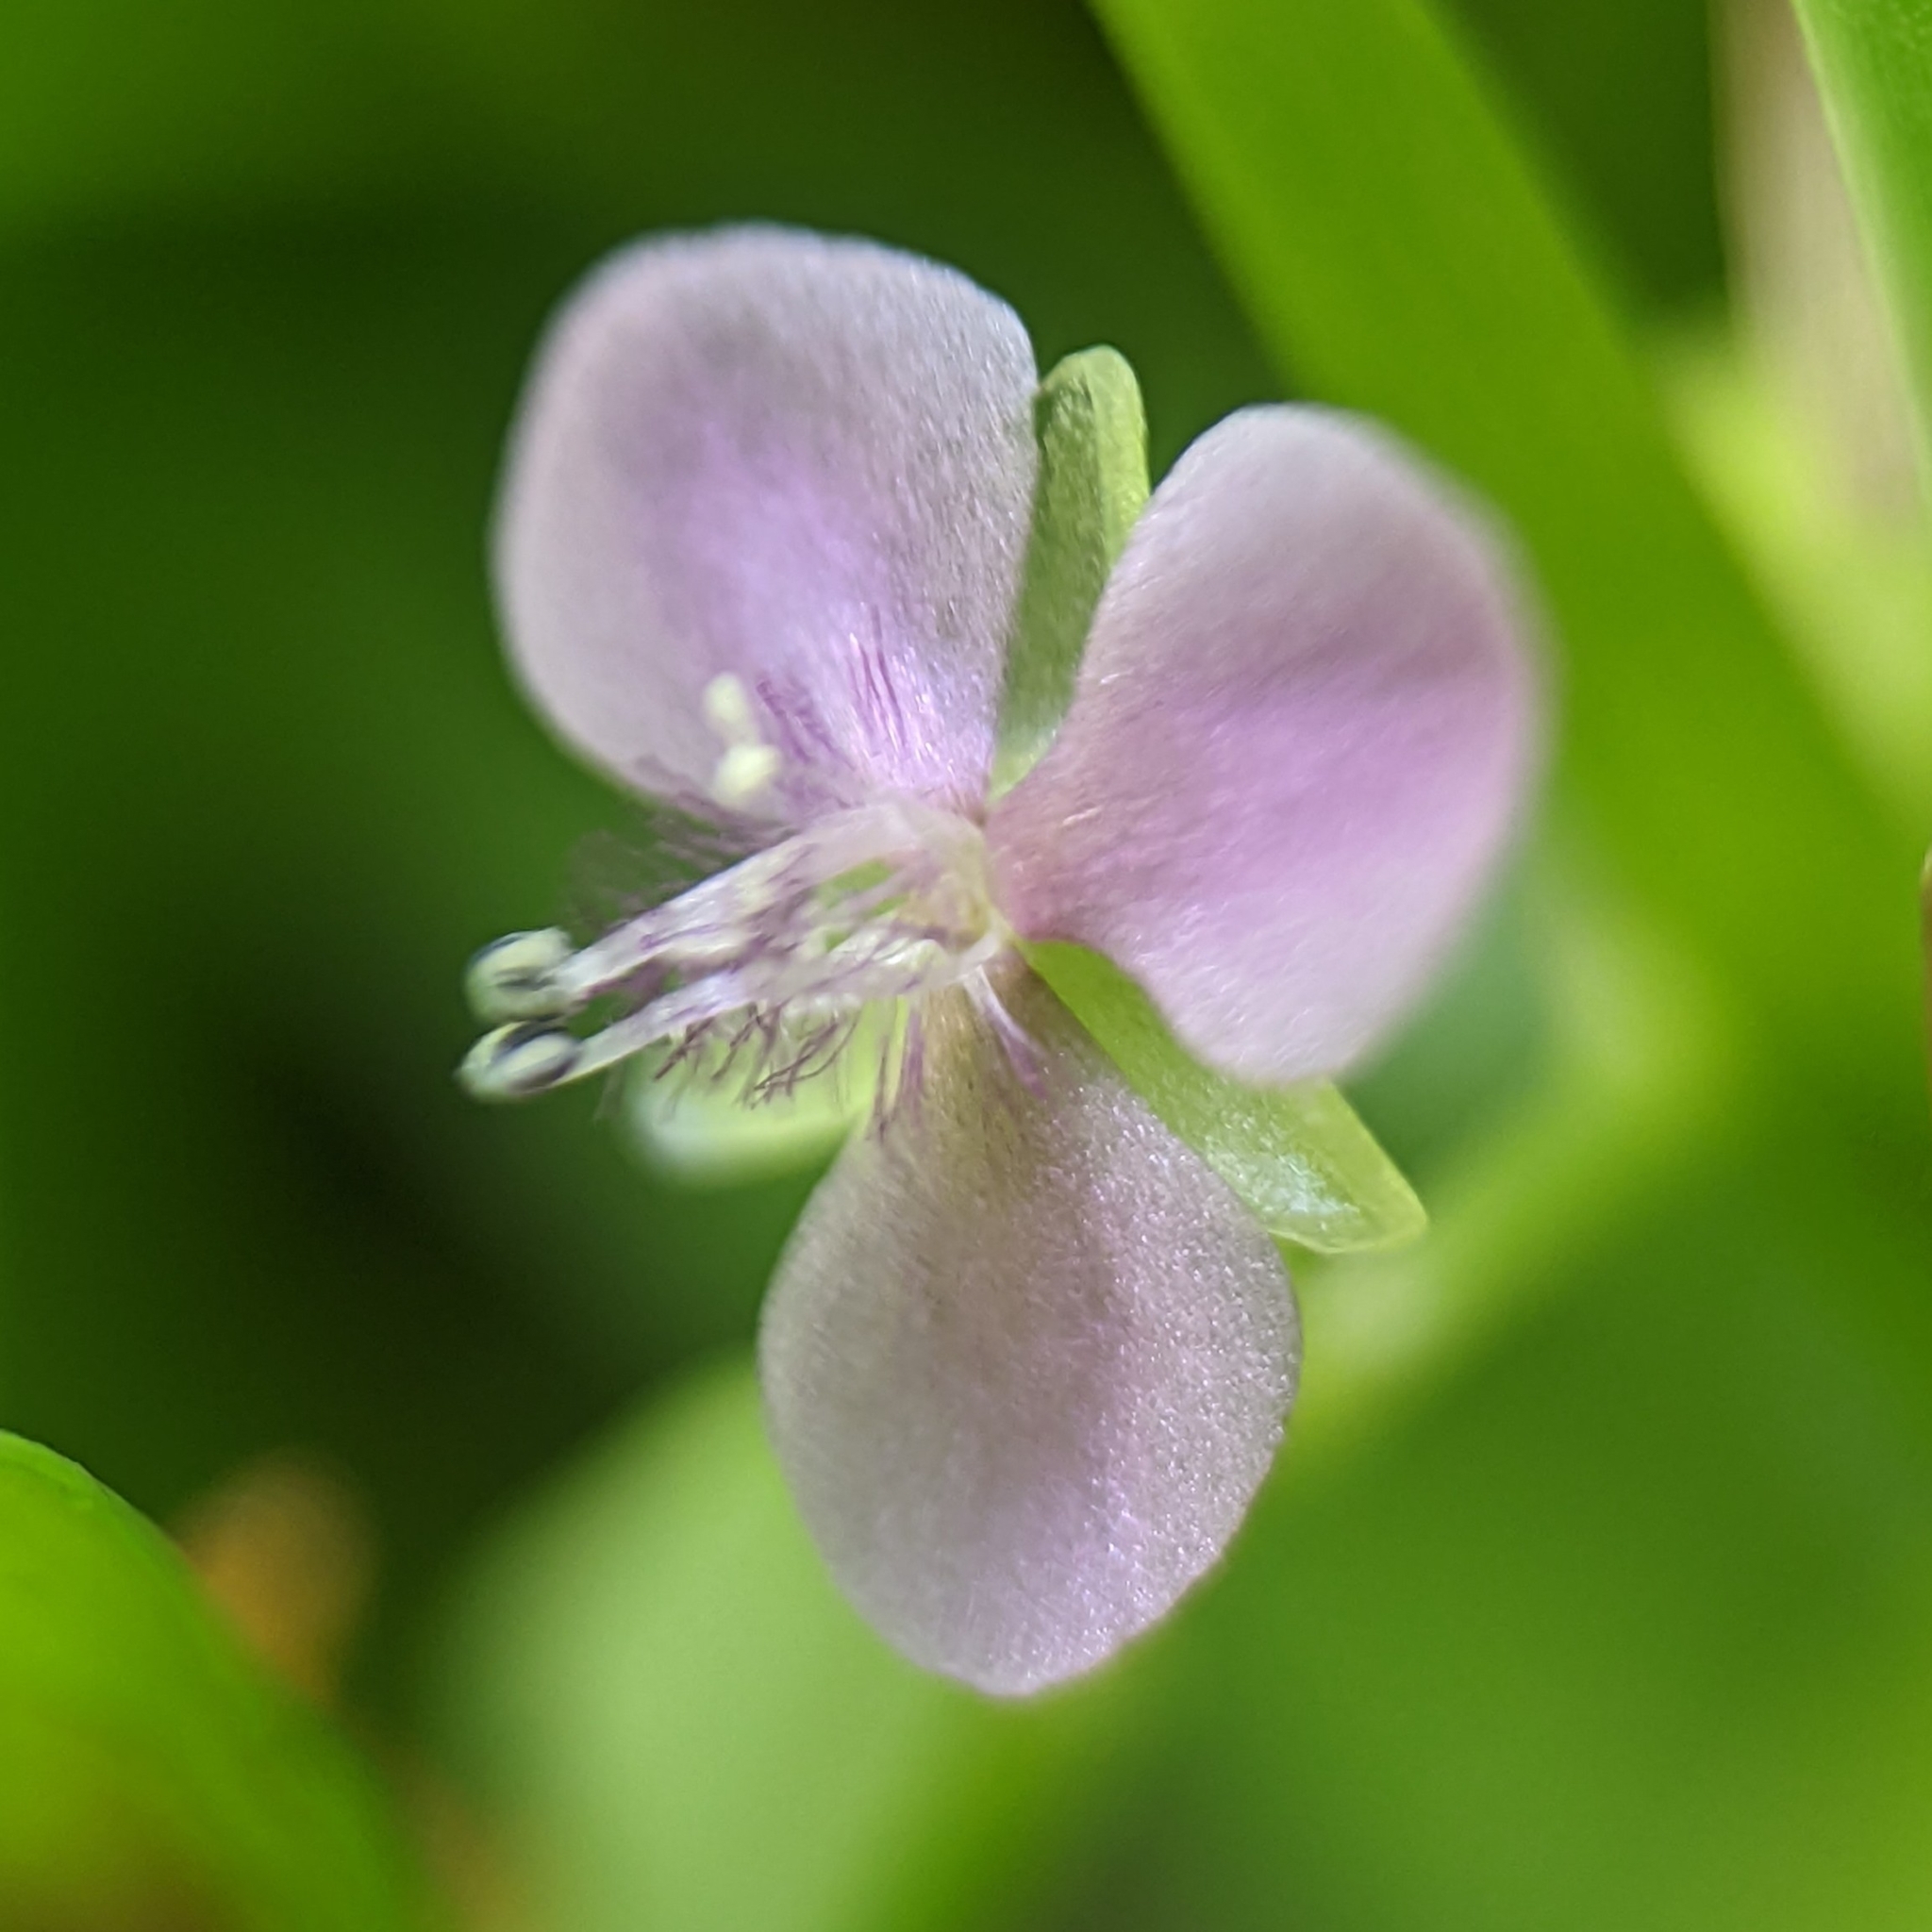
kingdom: Plantae
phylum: Tracheophyta
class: Liliopsida
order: Commelinales
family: Commelinaceae
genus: Murdannia
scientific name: Murdannia nudiflora
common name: Nakedstem dewflower
